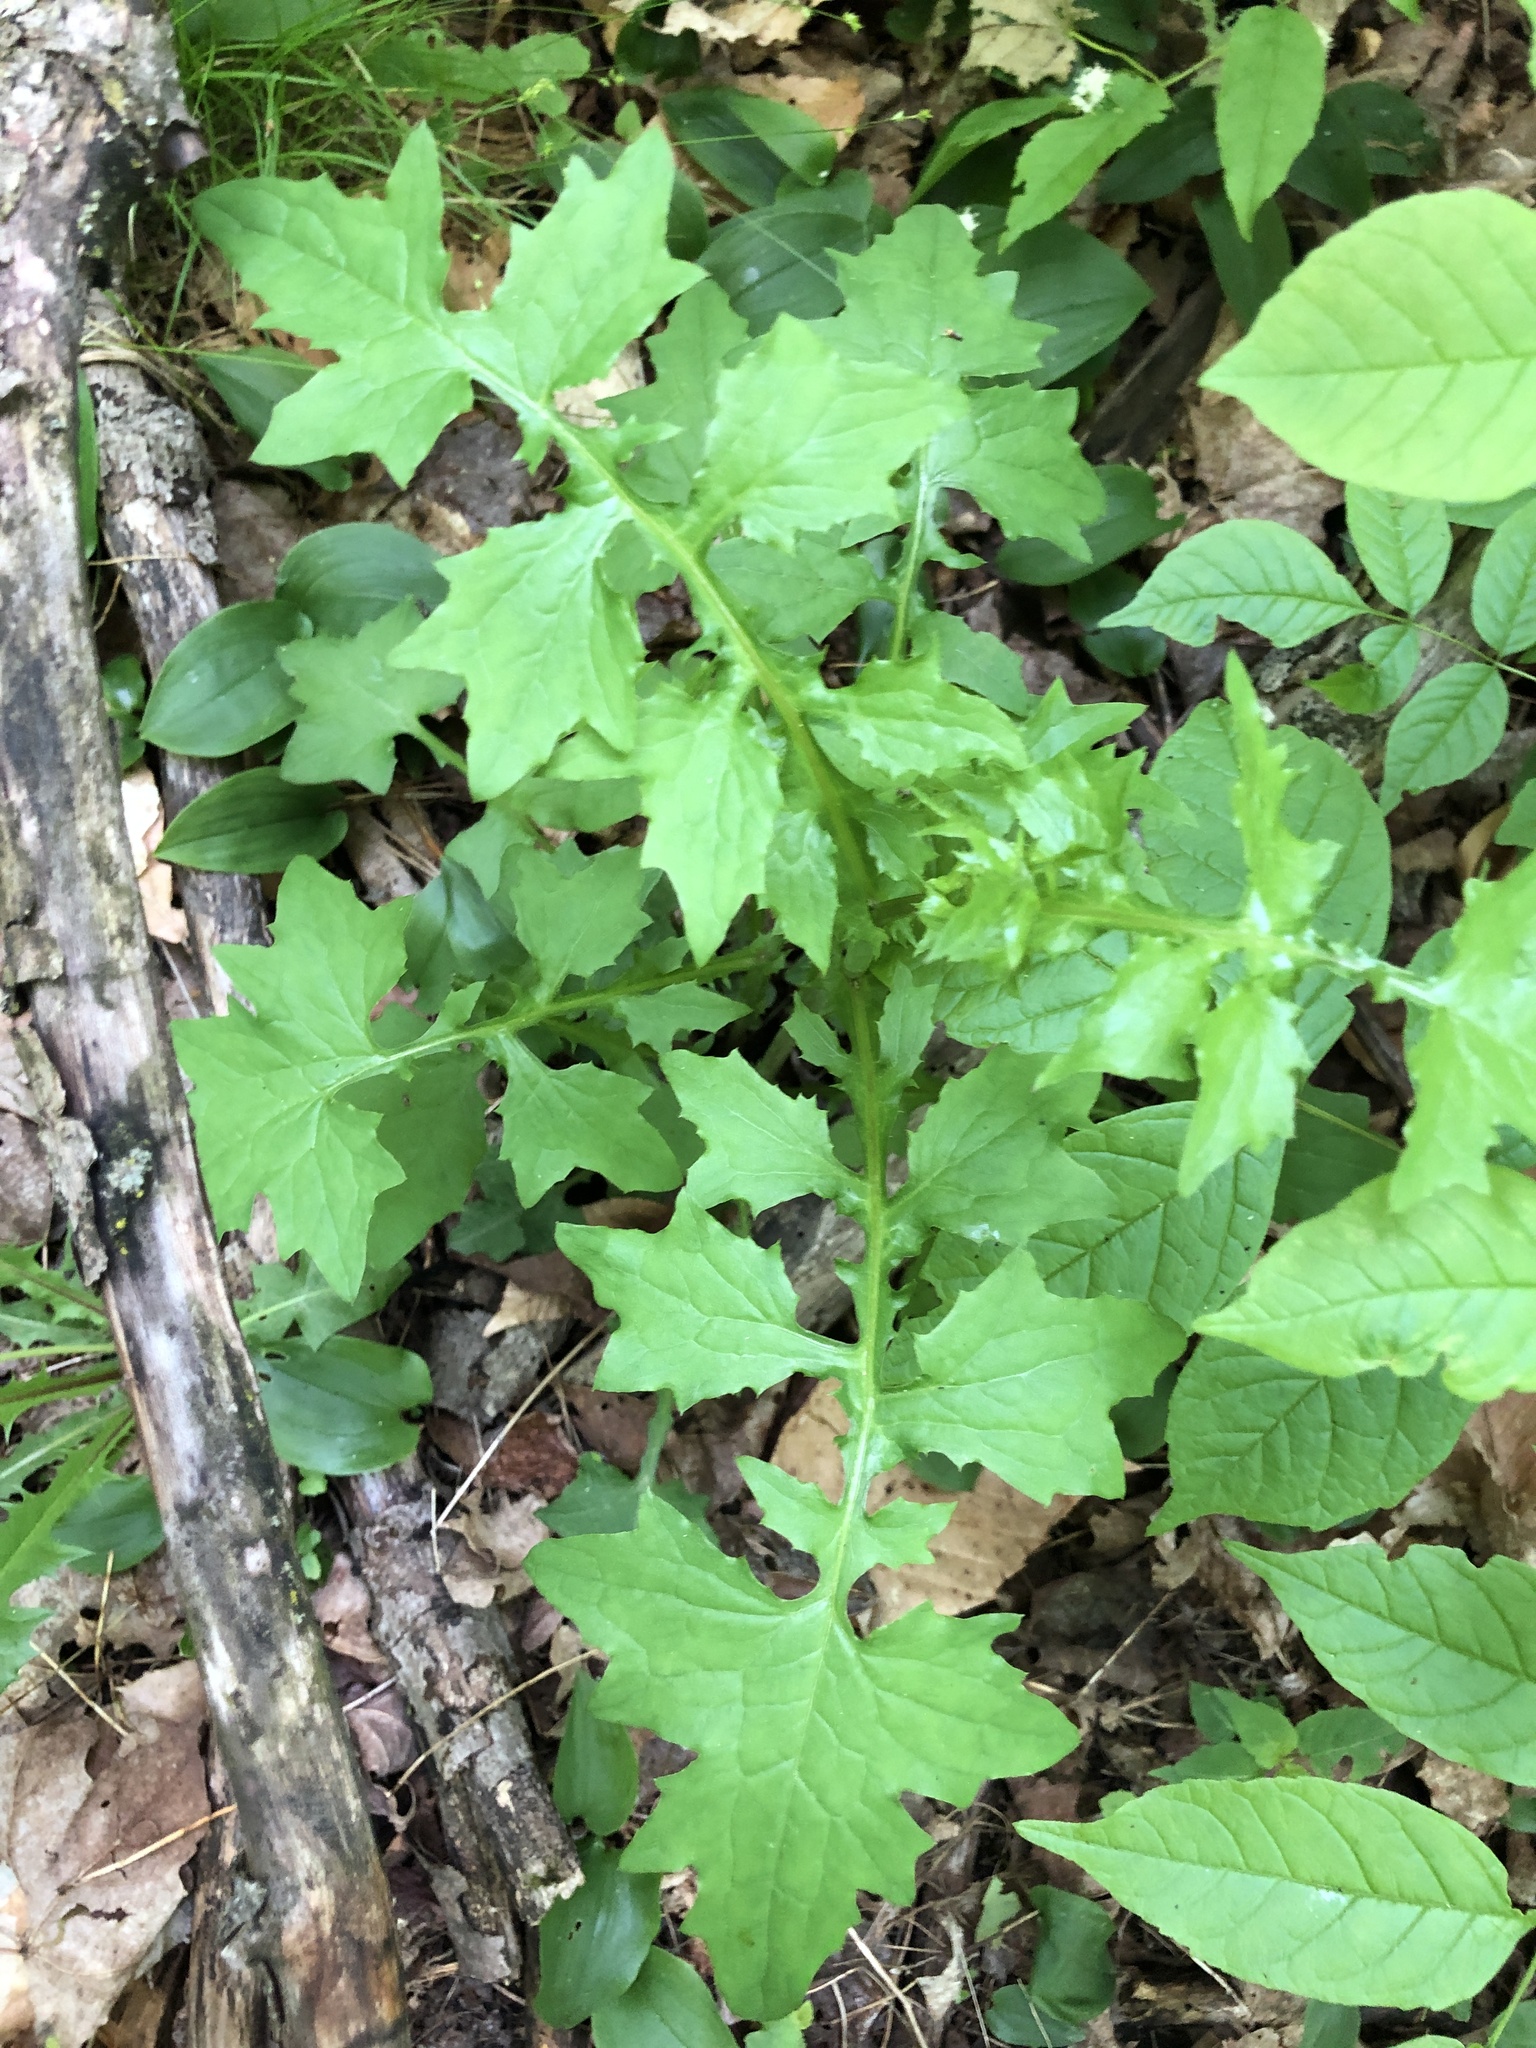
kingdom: Plantae
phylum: Tracheophyta
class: Magnoliopsida
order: Asterales
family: Asteraceae
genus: Mycelis
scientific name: Mycelis muralis
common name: Wall lettuce
